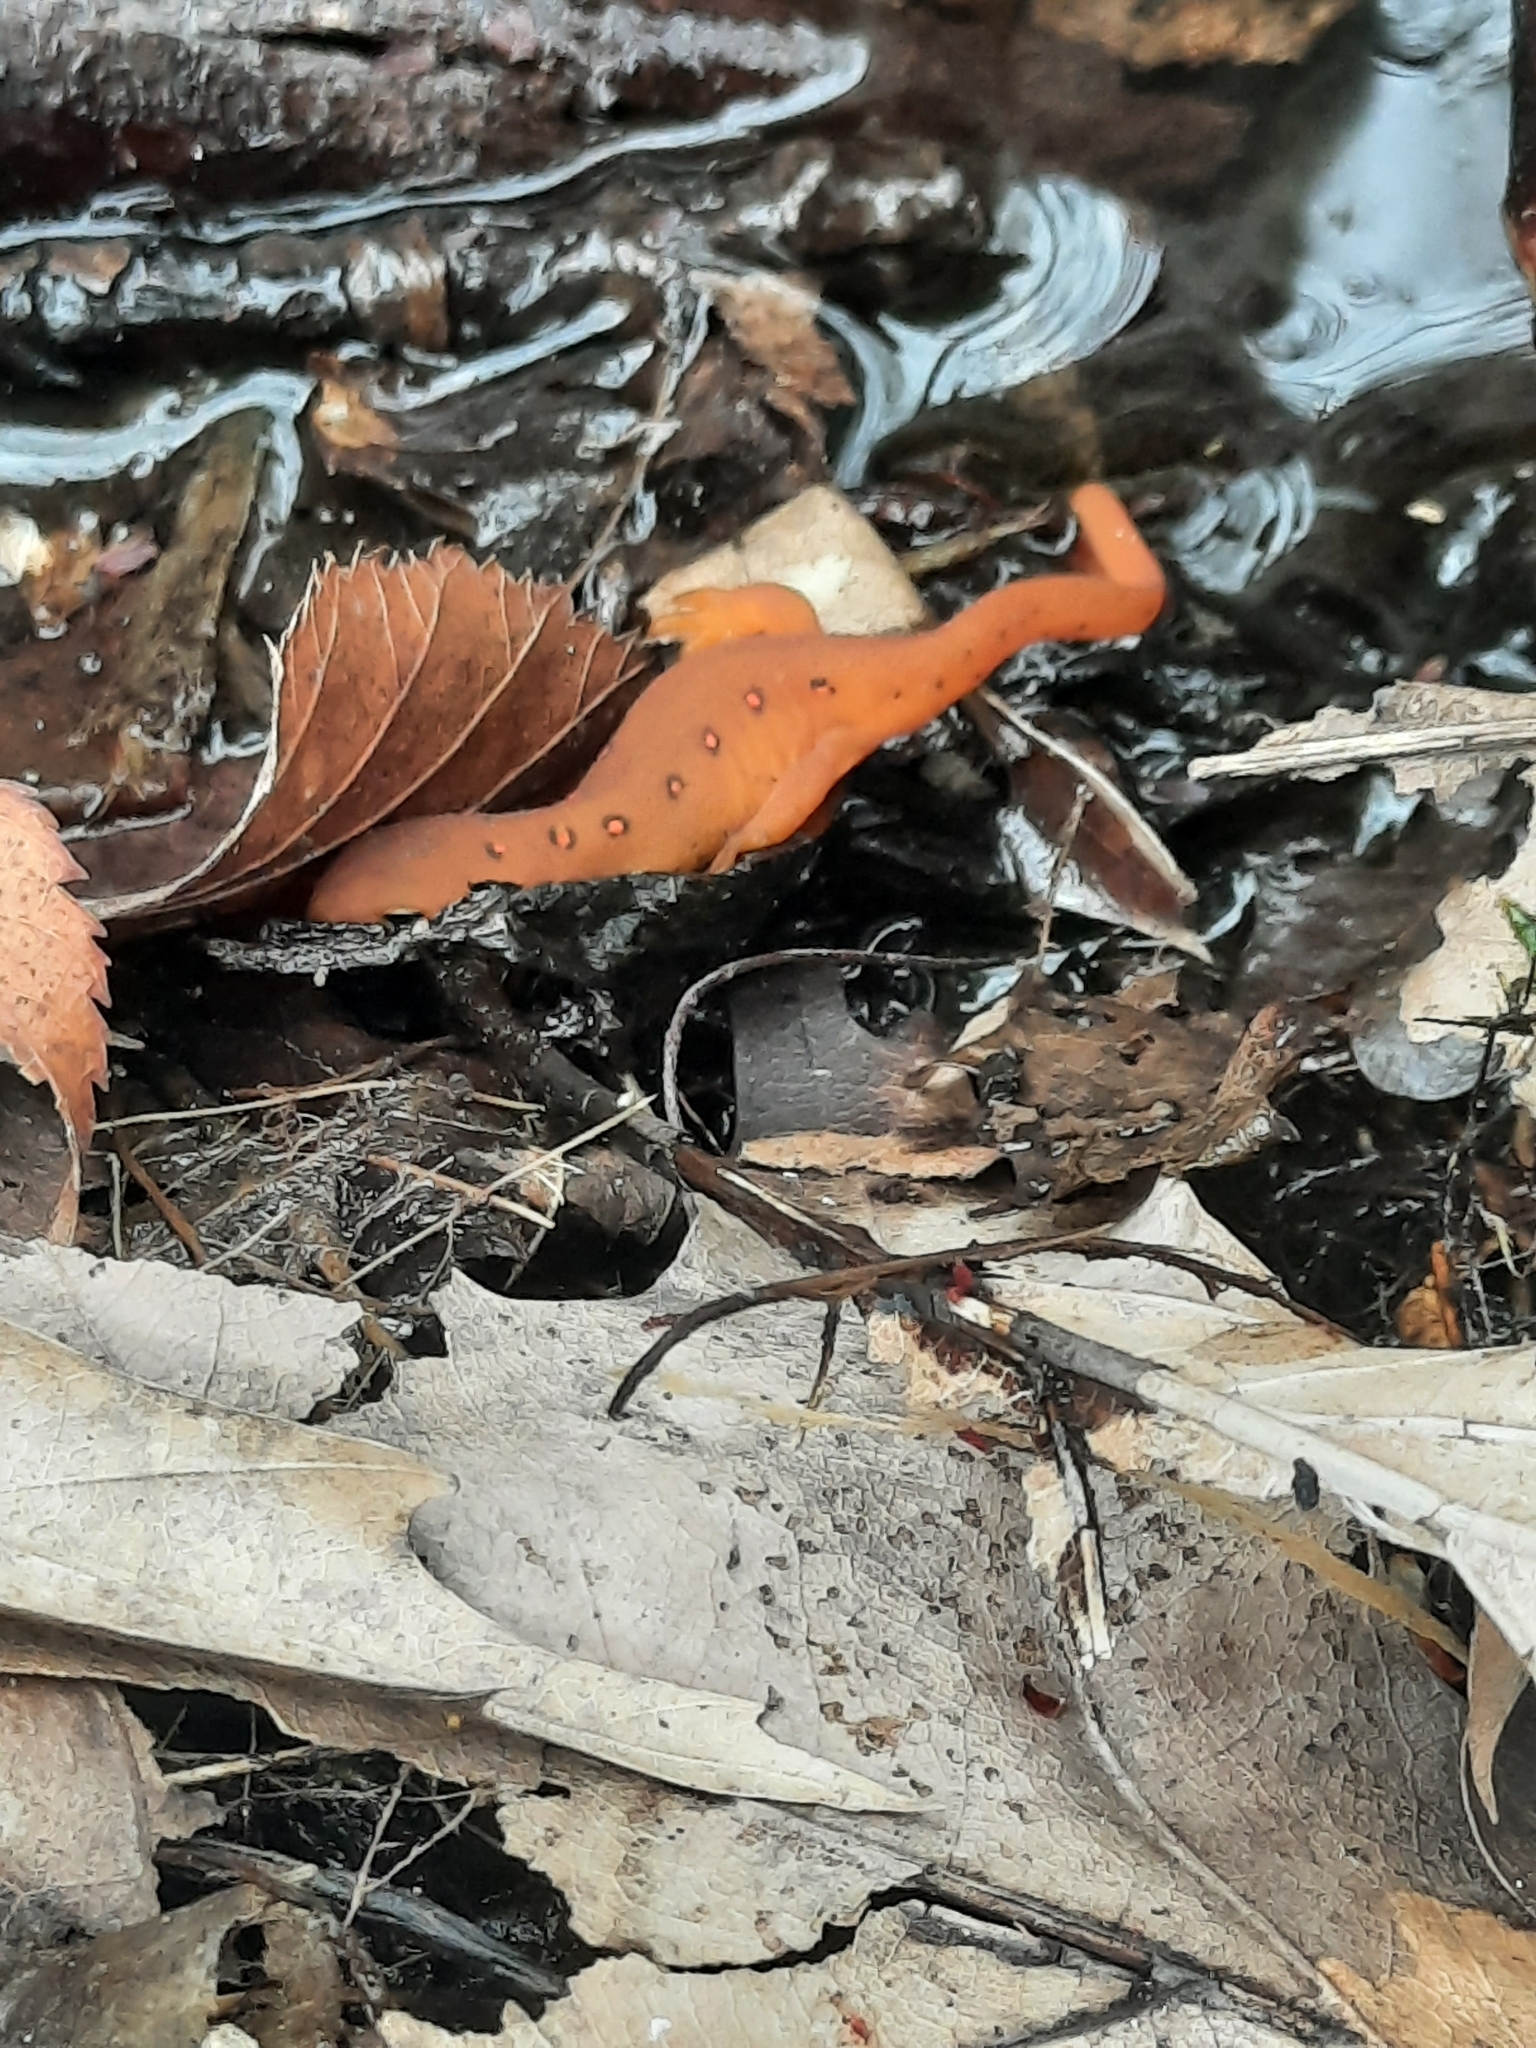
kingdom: Animalia
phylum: Chordata
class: Amphibia
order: Caudata
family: Salamandridae
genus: Notophthalmus
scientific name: Notophthalmus viridescens
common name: Eastern newt
